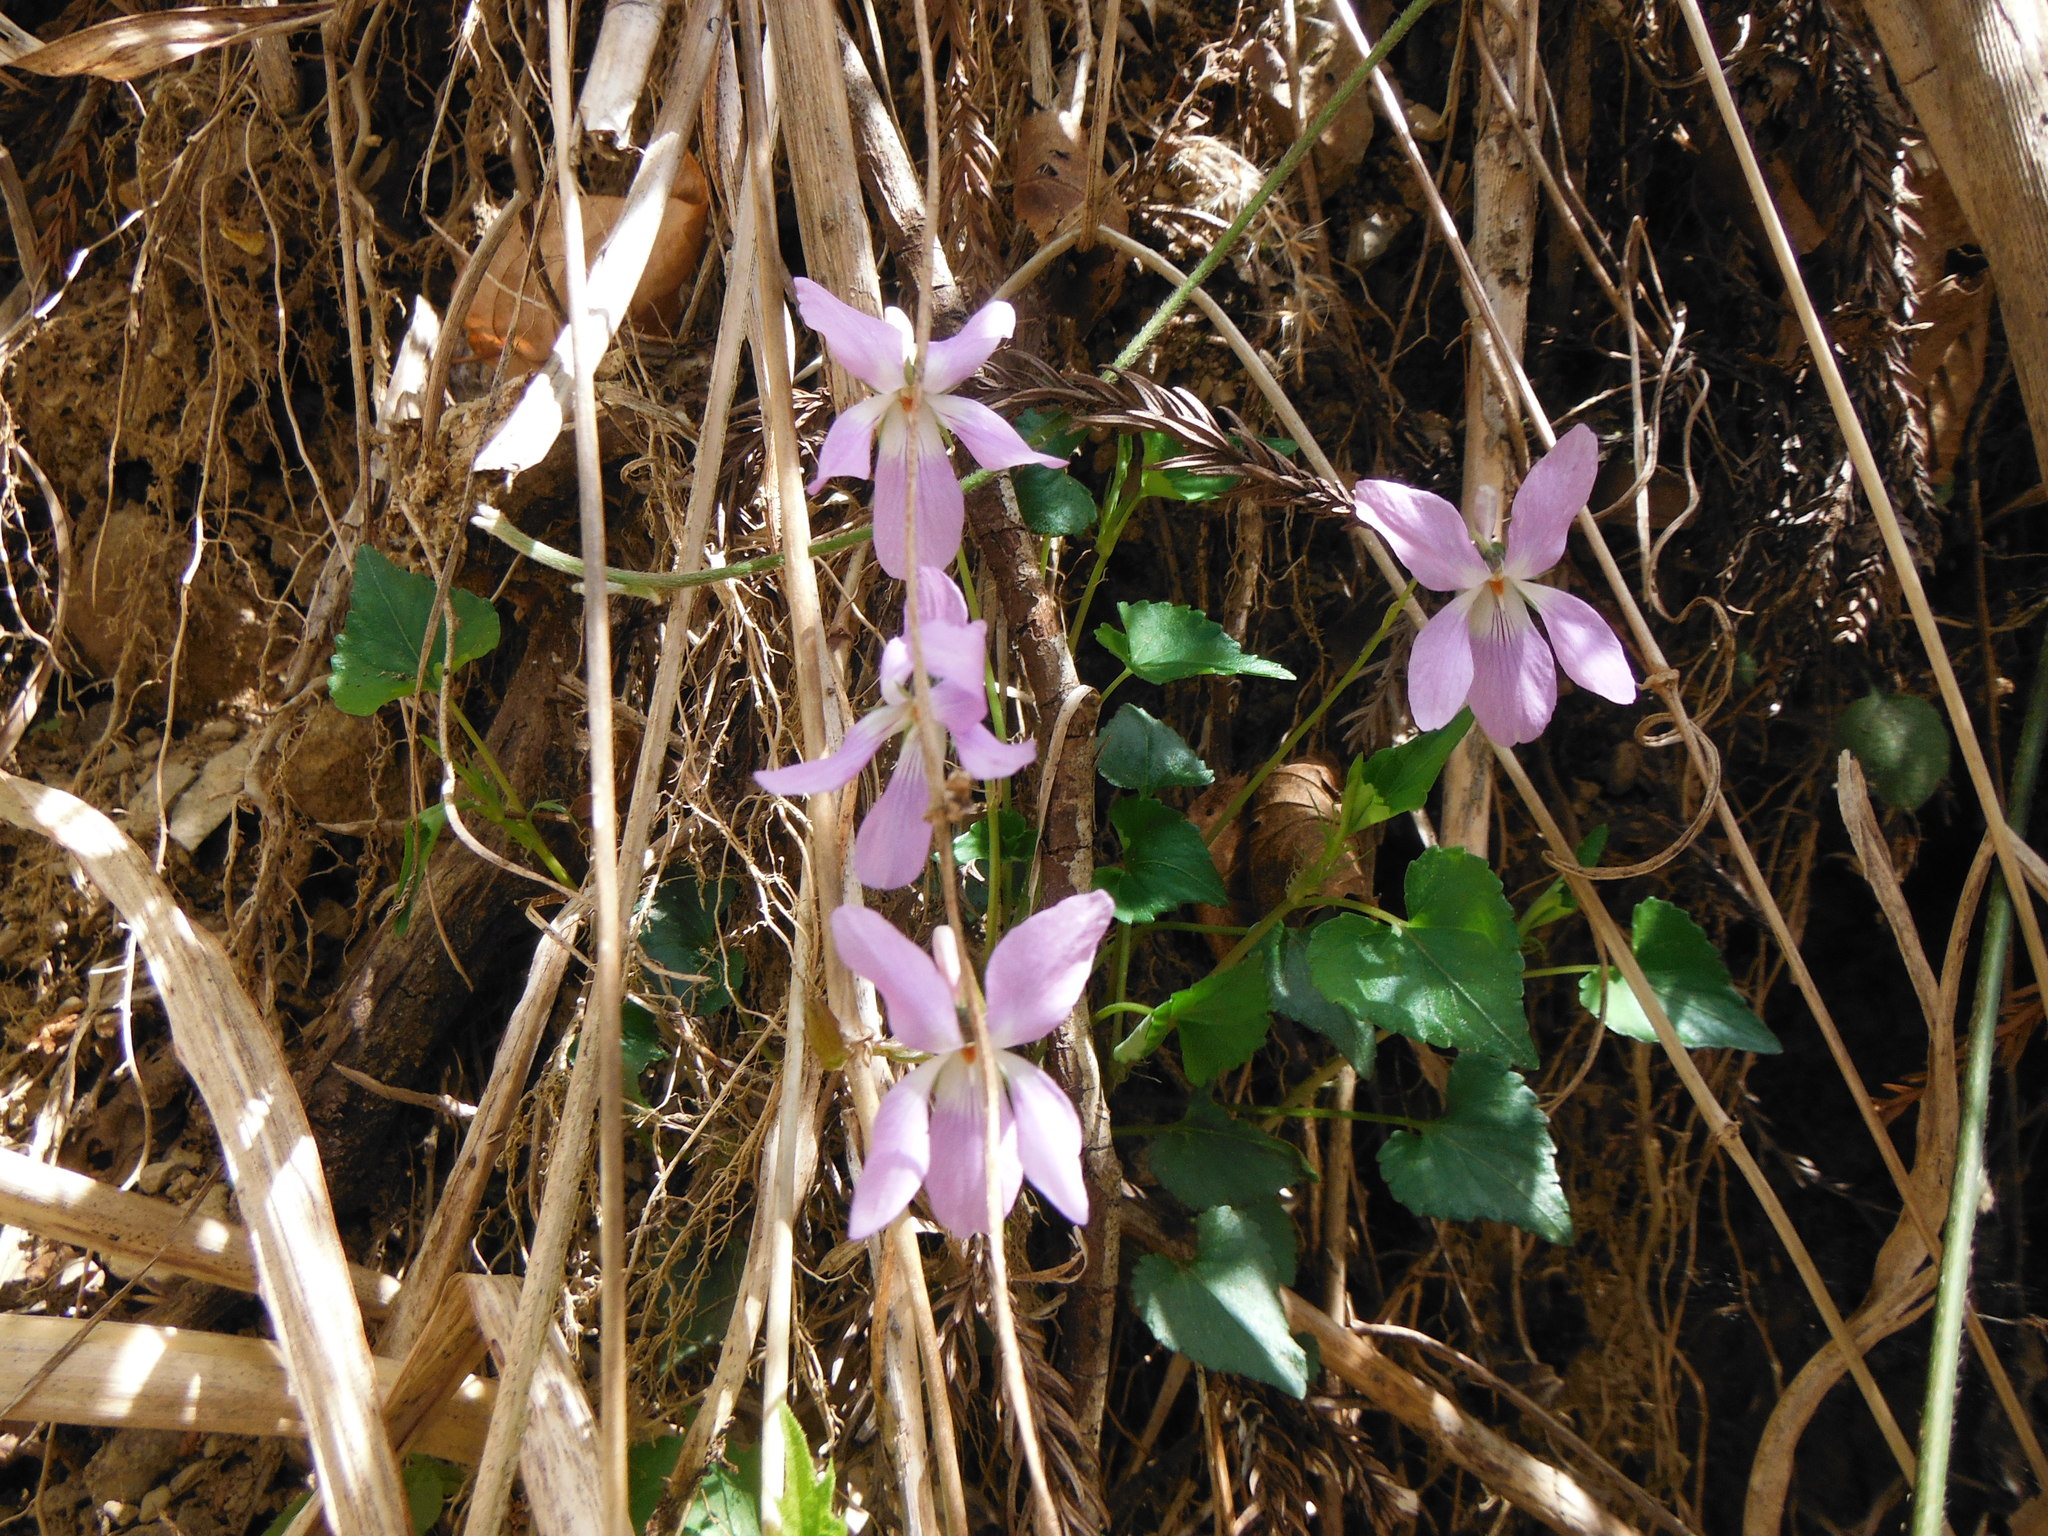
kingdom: Plantae
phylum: Tracheophyta
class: Magnoliopsida
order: Malpighiales
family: Violaceae
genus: Viola
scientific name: Viola grypoceras
